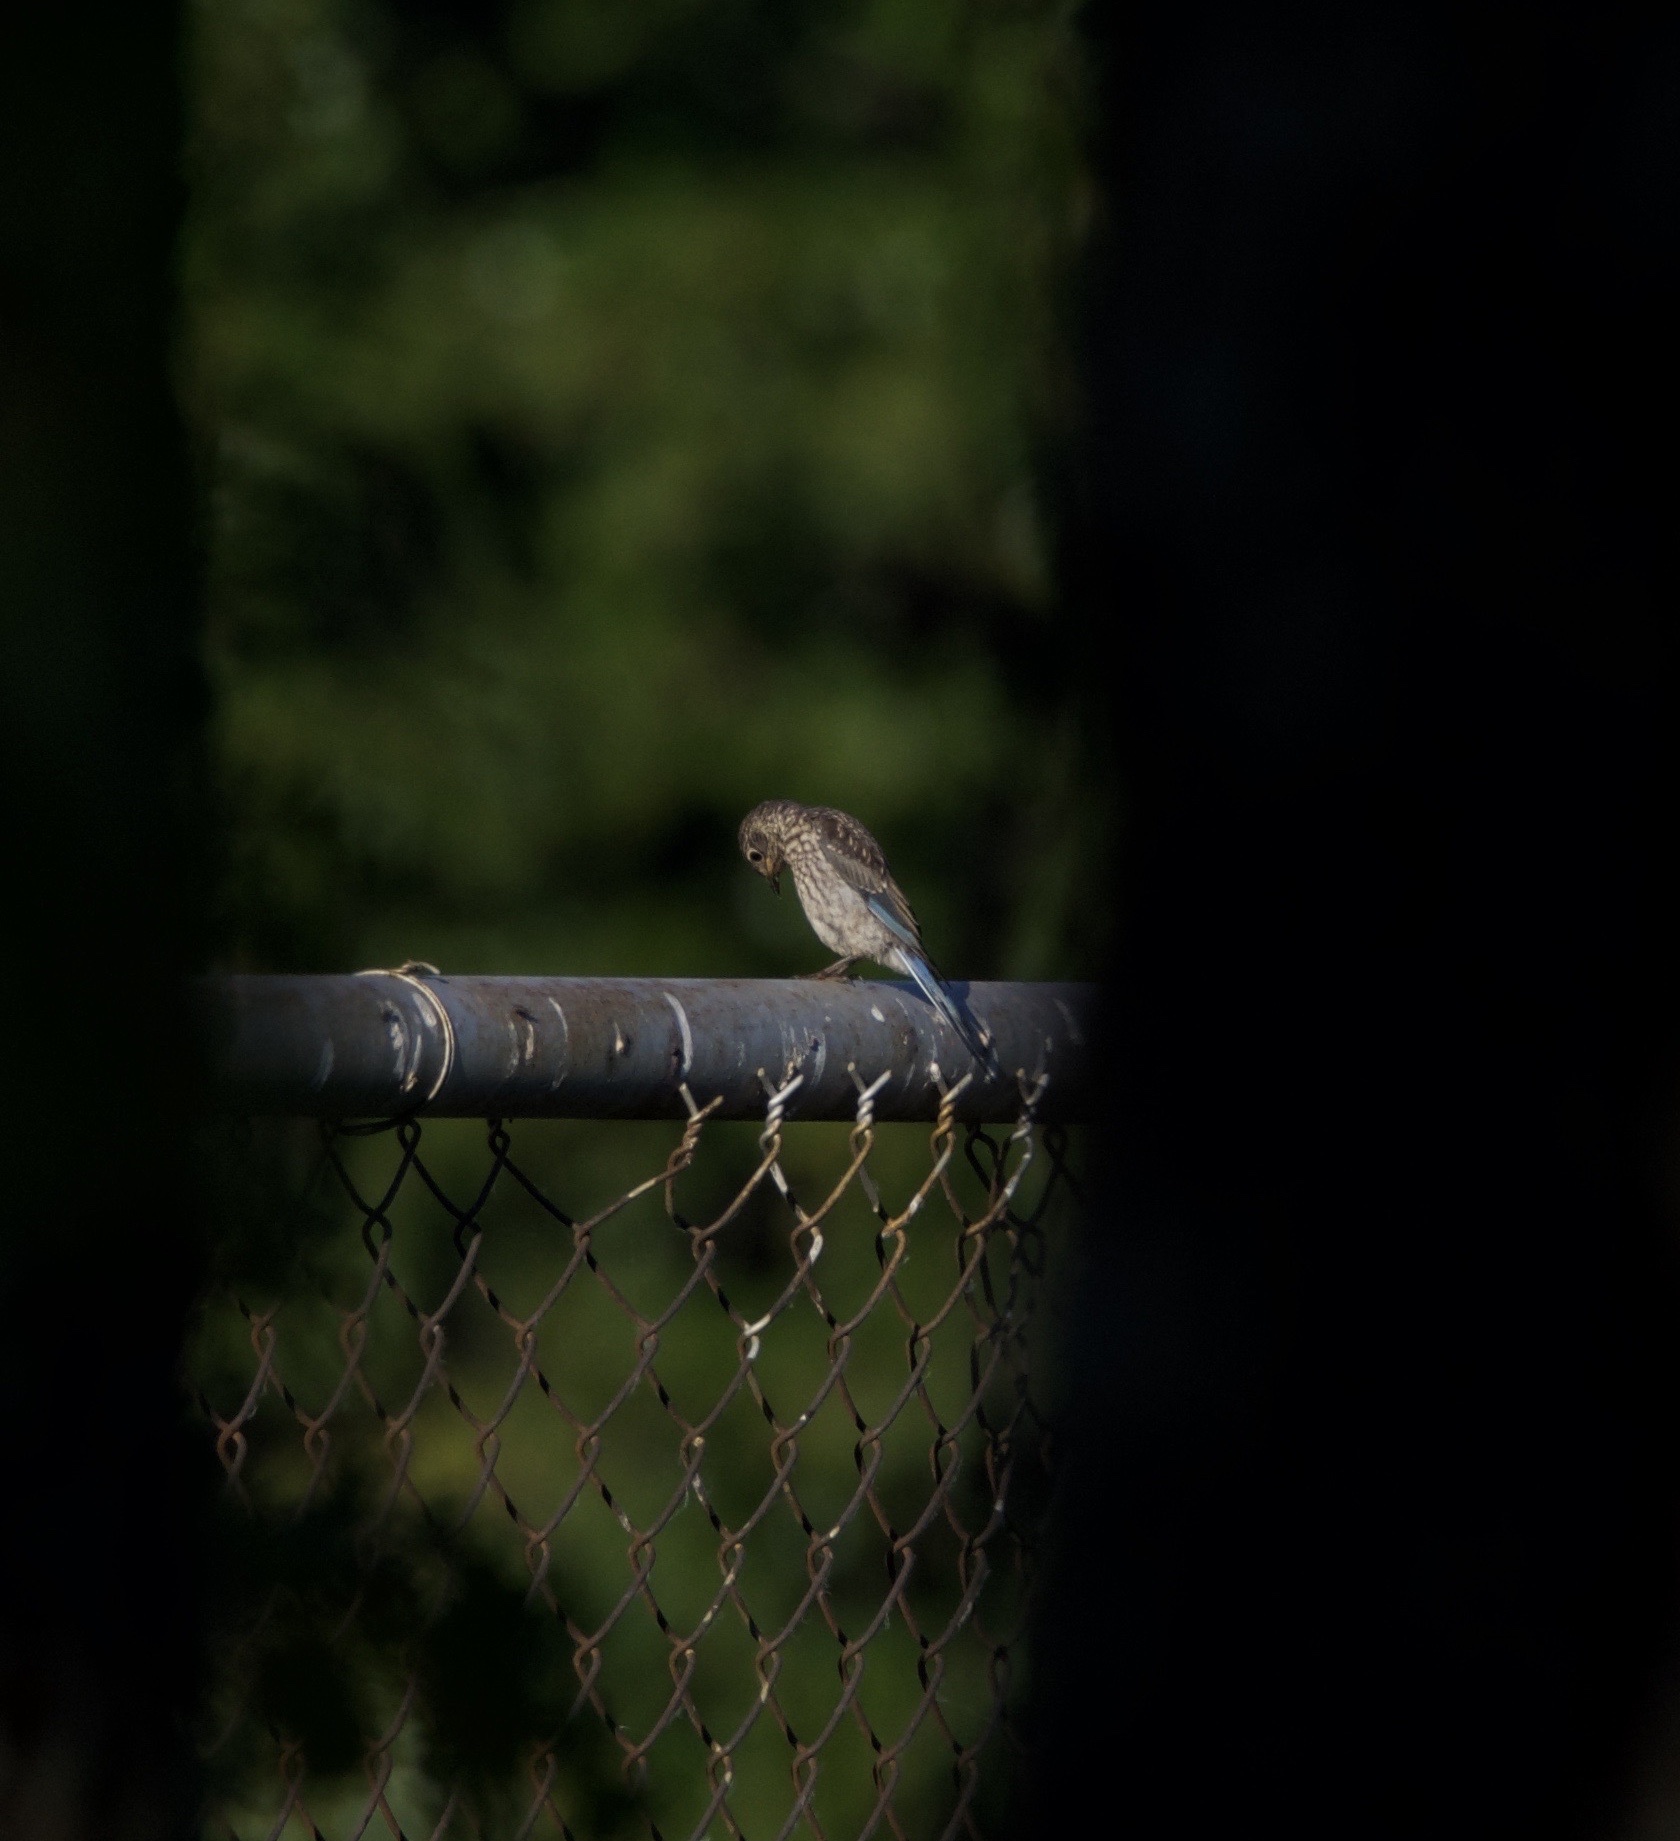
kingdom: Animalia
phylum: Chordata
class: Aves
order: Passeriformes
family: Turdidae
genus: Sialia
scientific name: Sialia sialis
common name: Eastern bluebird
